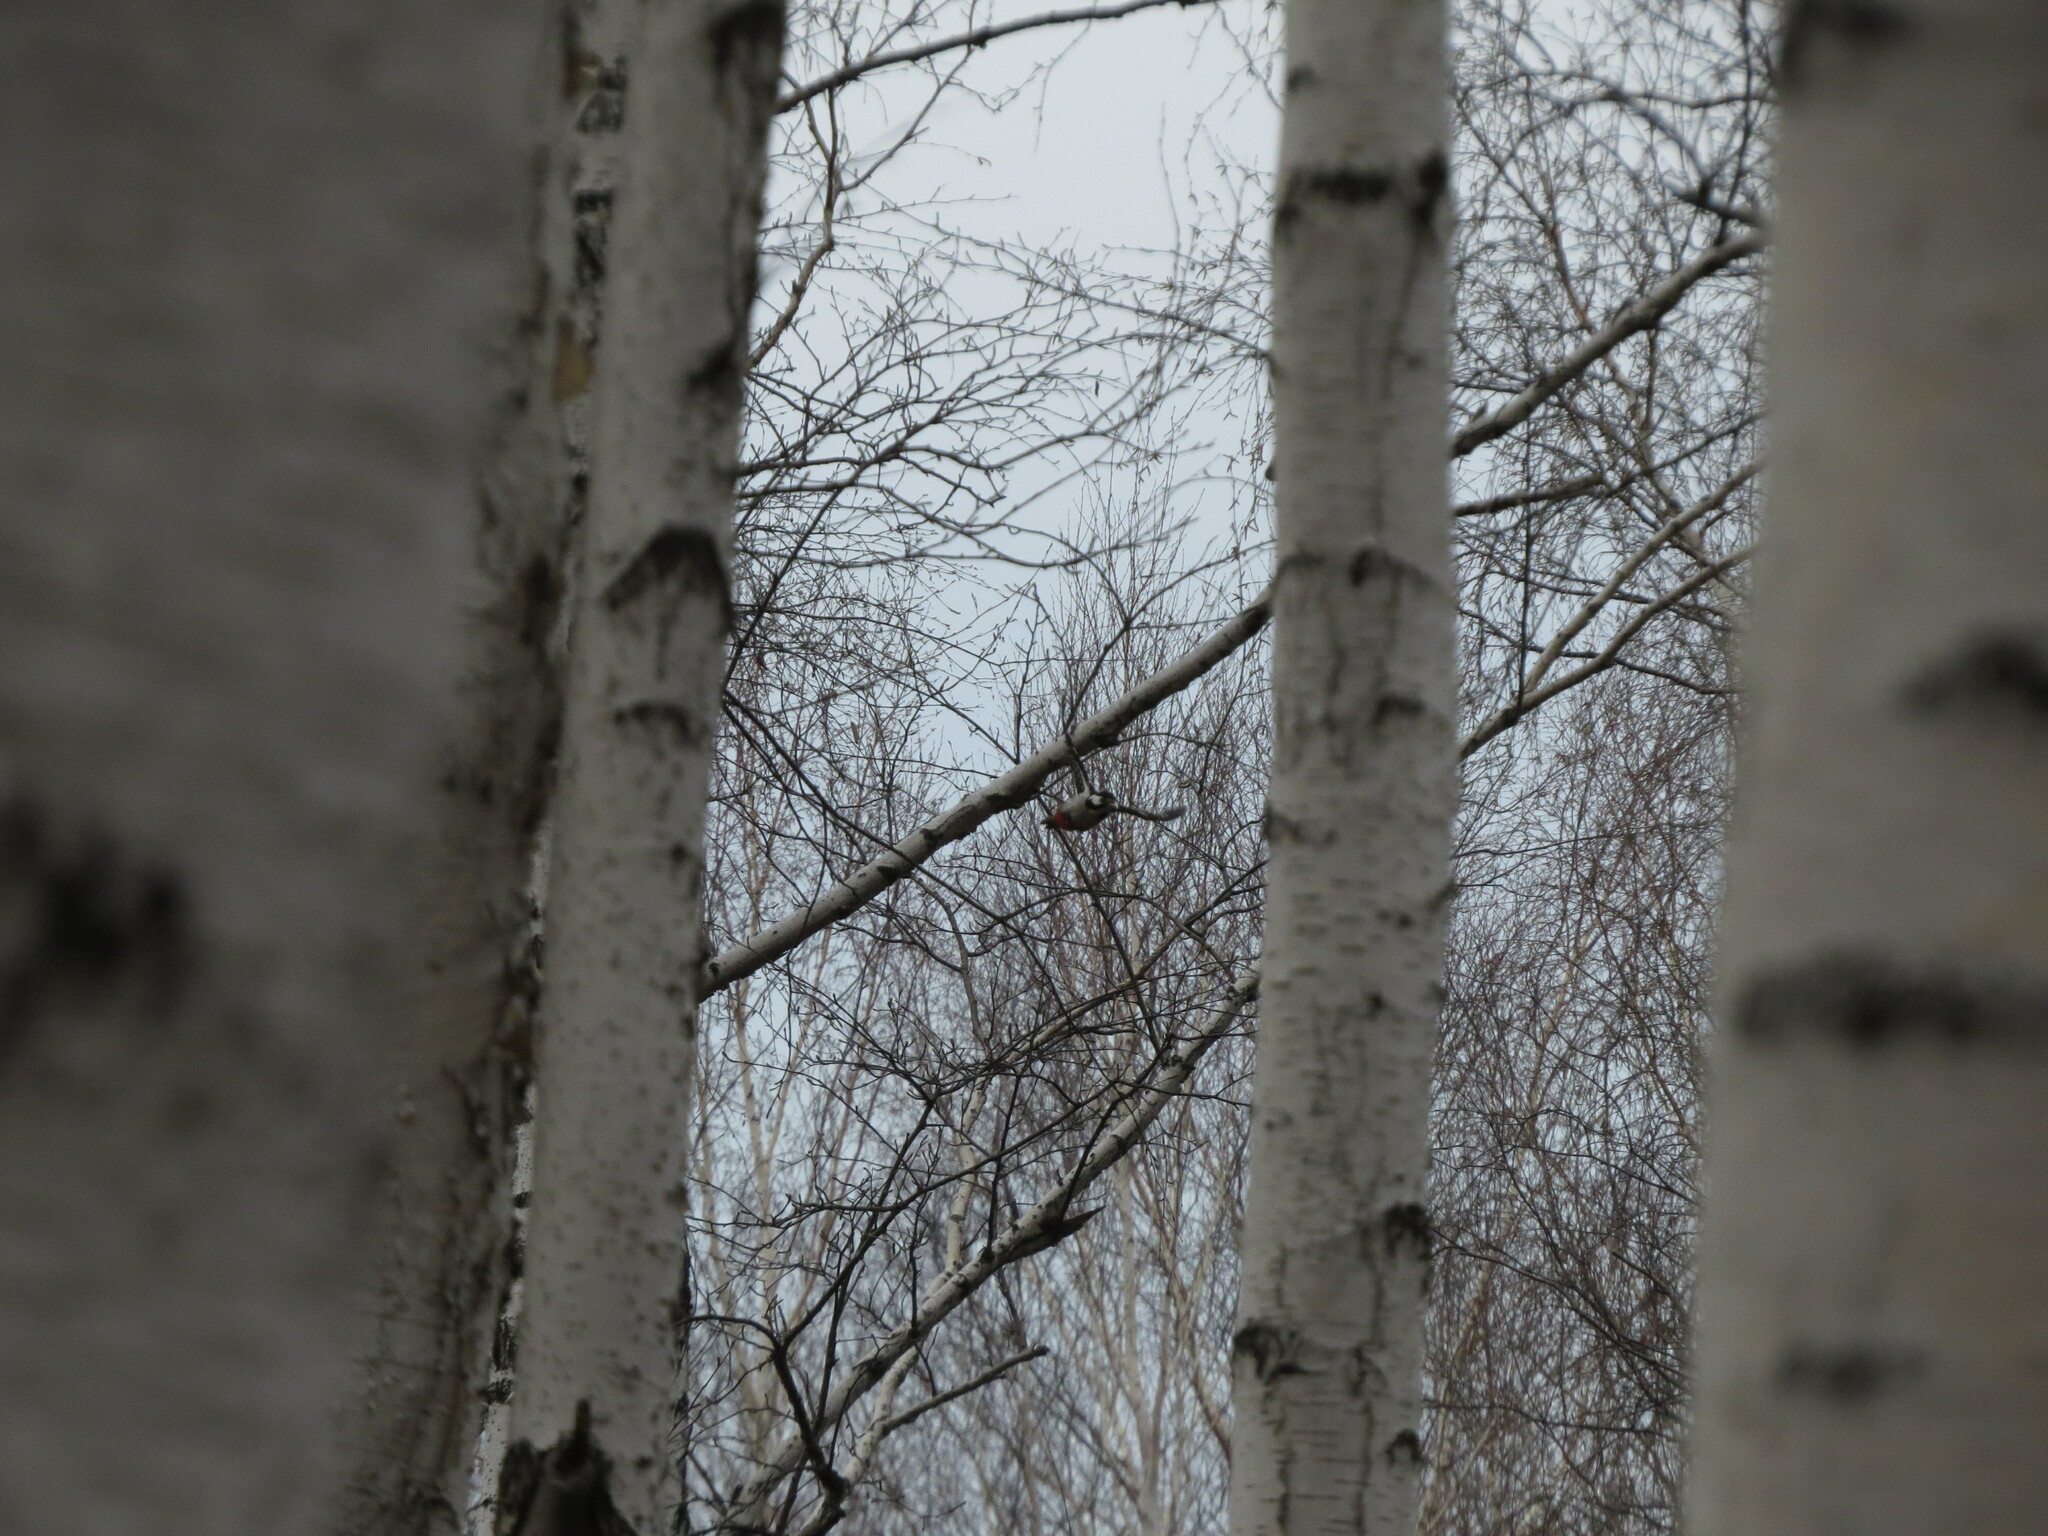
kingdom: Animalia
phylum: Chordata
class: Aves
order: Piciformes
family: Picidae
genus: Dendrocopos
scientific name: Dendrocopos major
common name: Great spotted woodpecker
